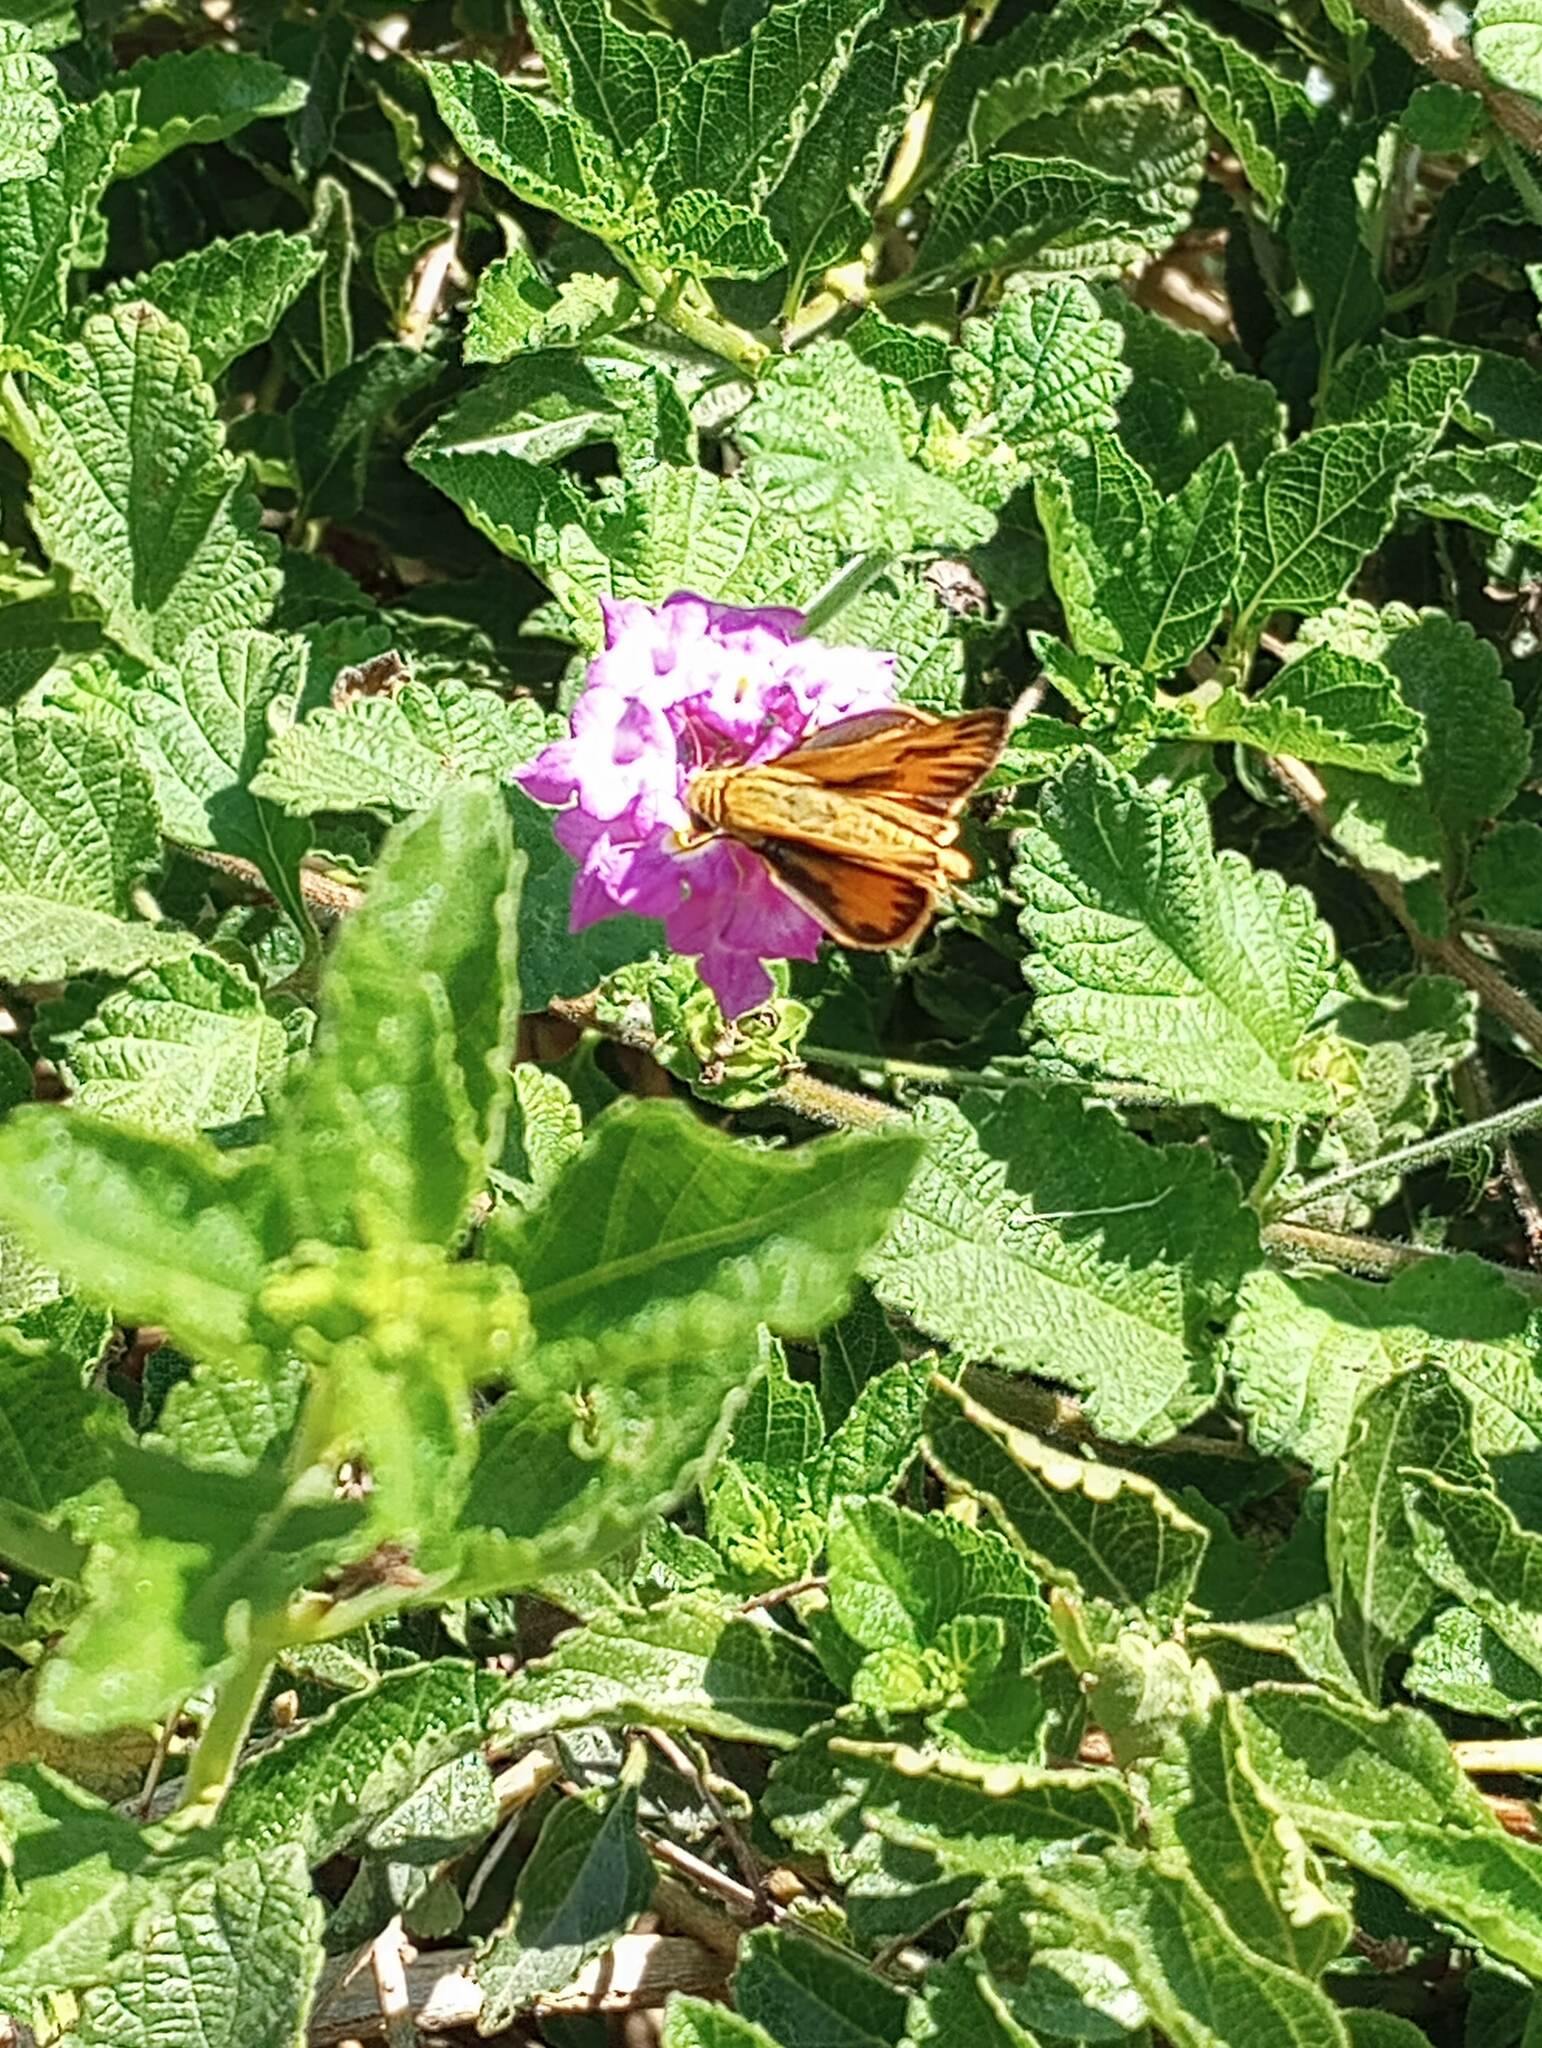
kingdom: Animalia
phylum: Arthropoda
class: Insecta
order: Lepidoptera
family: Hesperiidae
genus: Hylephila
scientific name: Hylephila phyleus
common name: Fiery skipper
